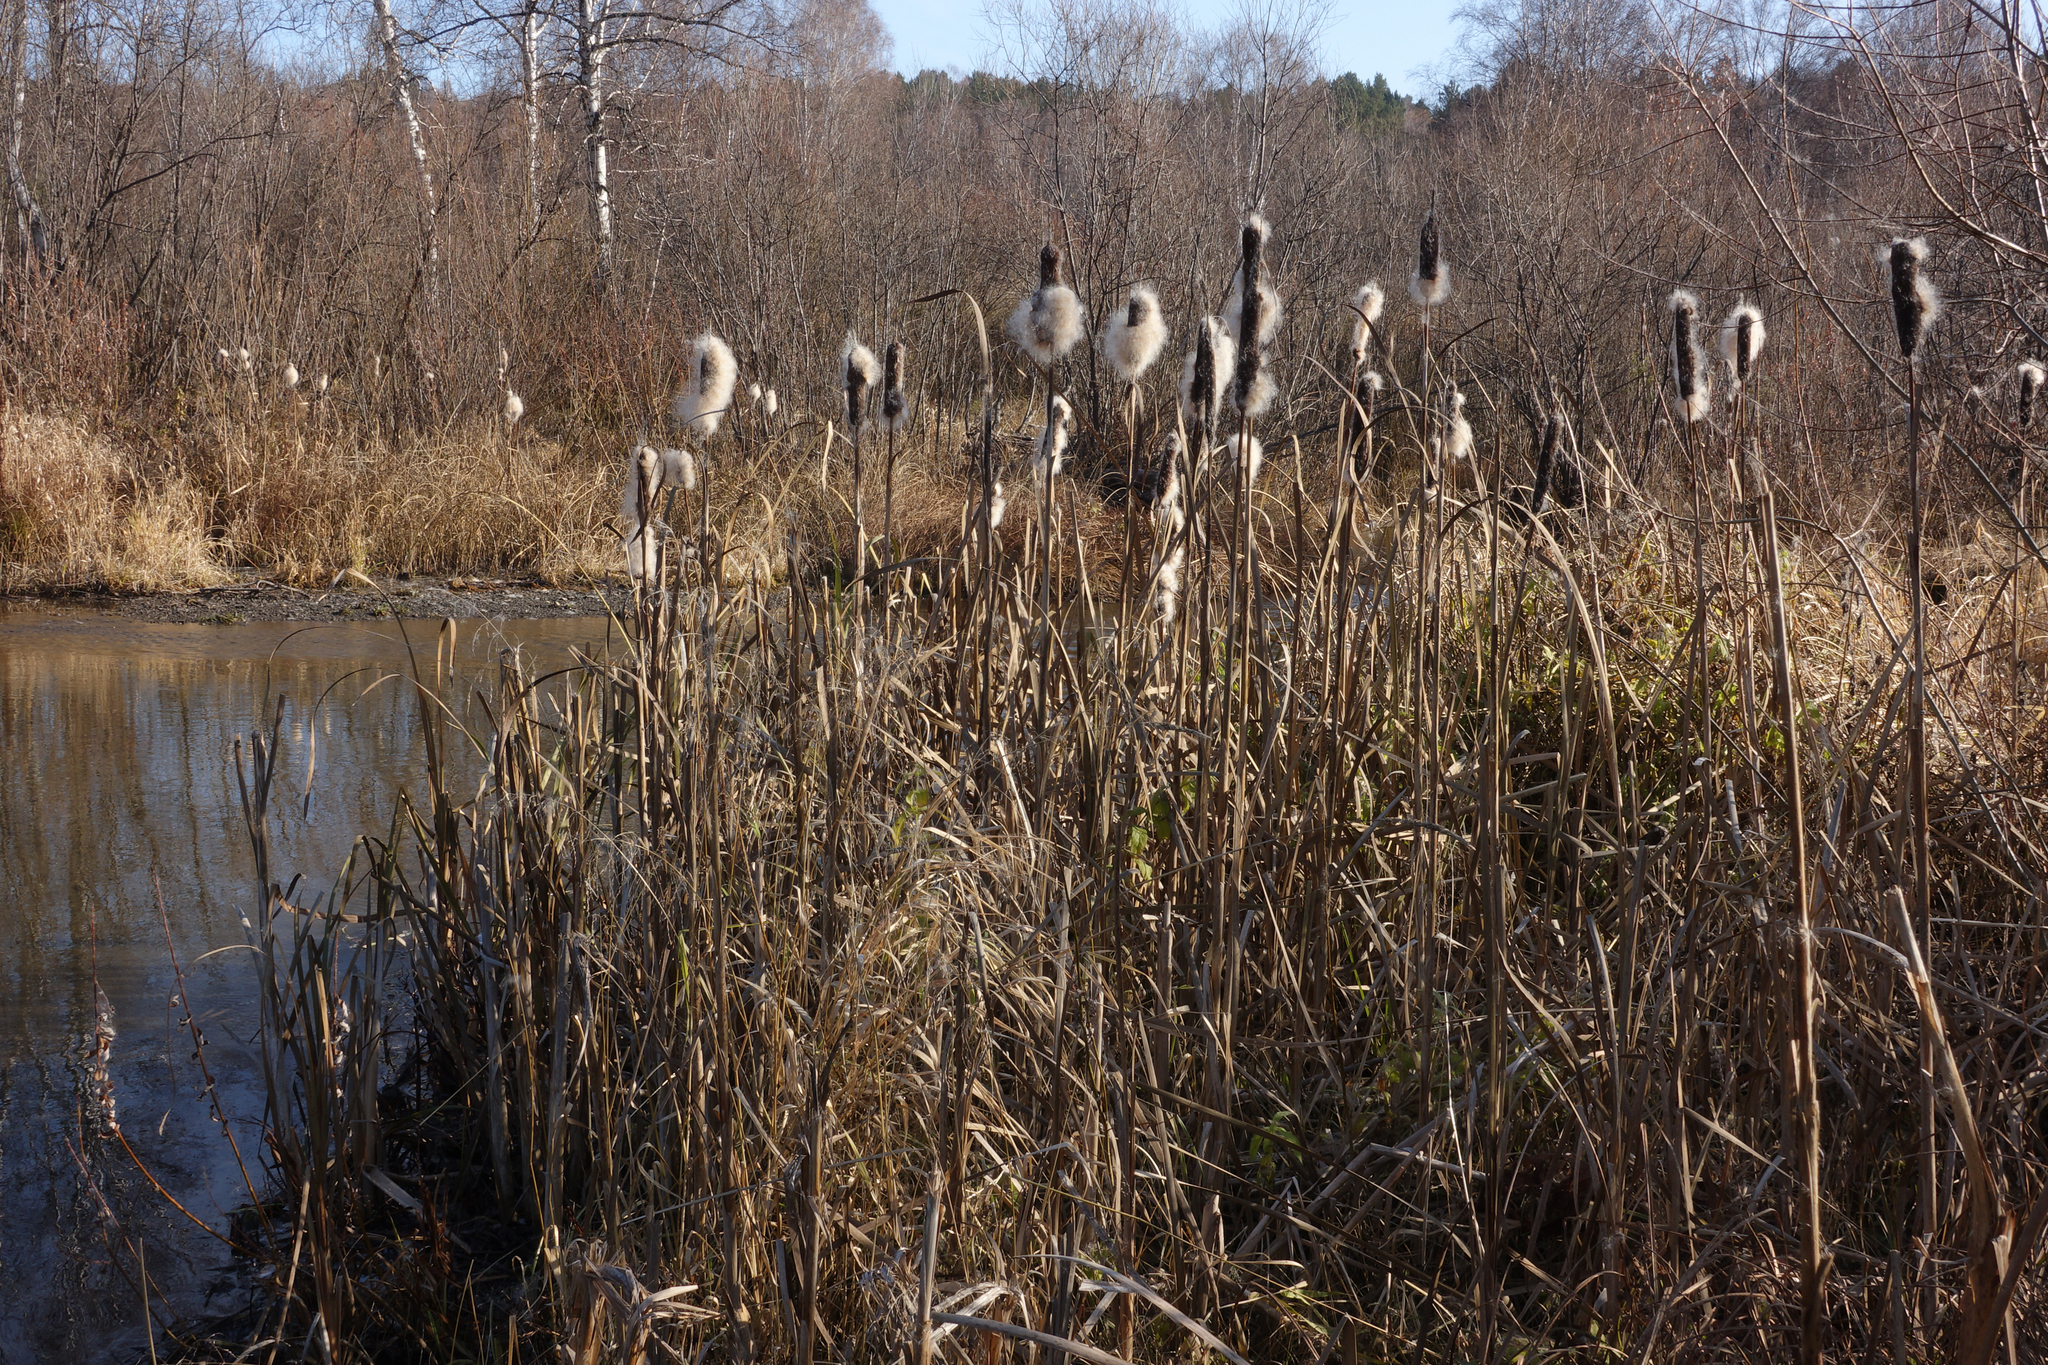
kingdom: Plantae
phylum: Tracheophyta
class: Liliopsida
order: Poales
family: Typhaceae
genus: Typha
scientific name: Typha latifolia
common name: Broadleaf cattail
